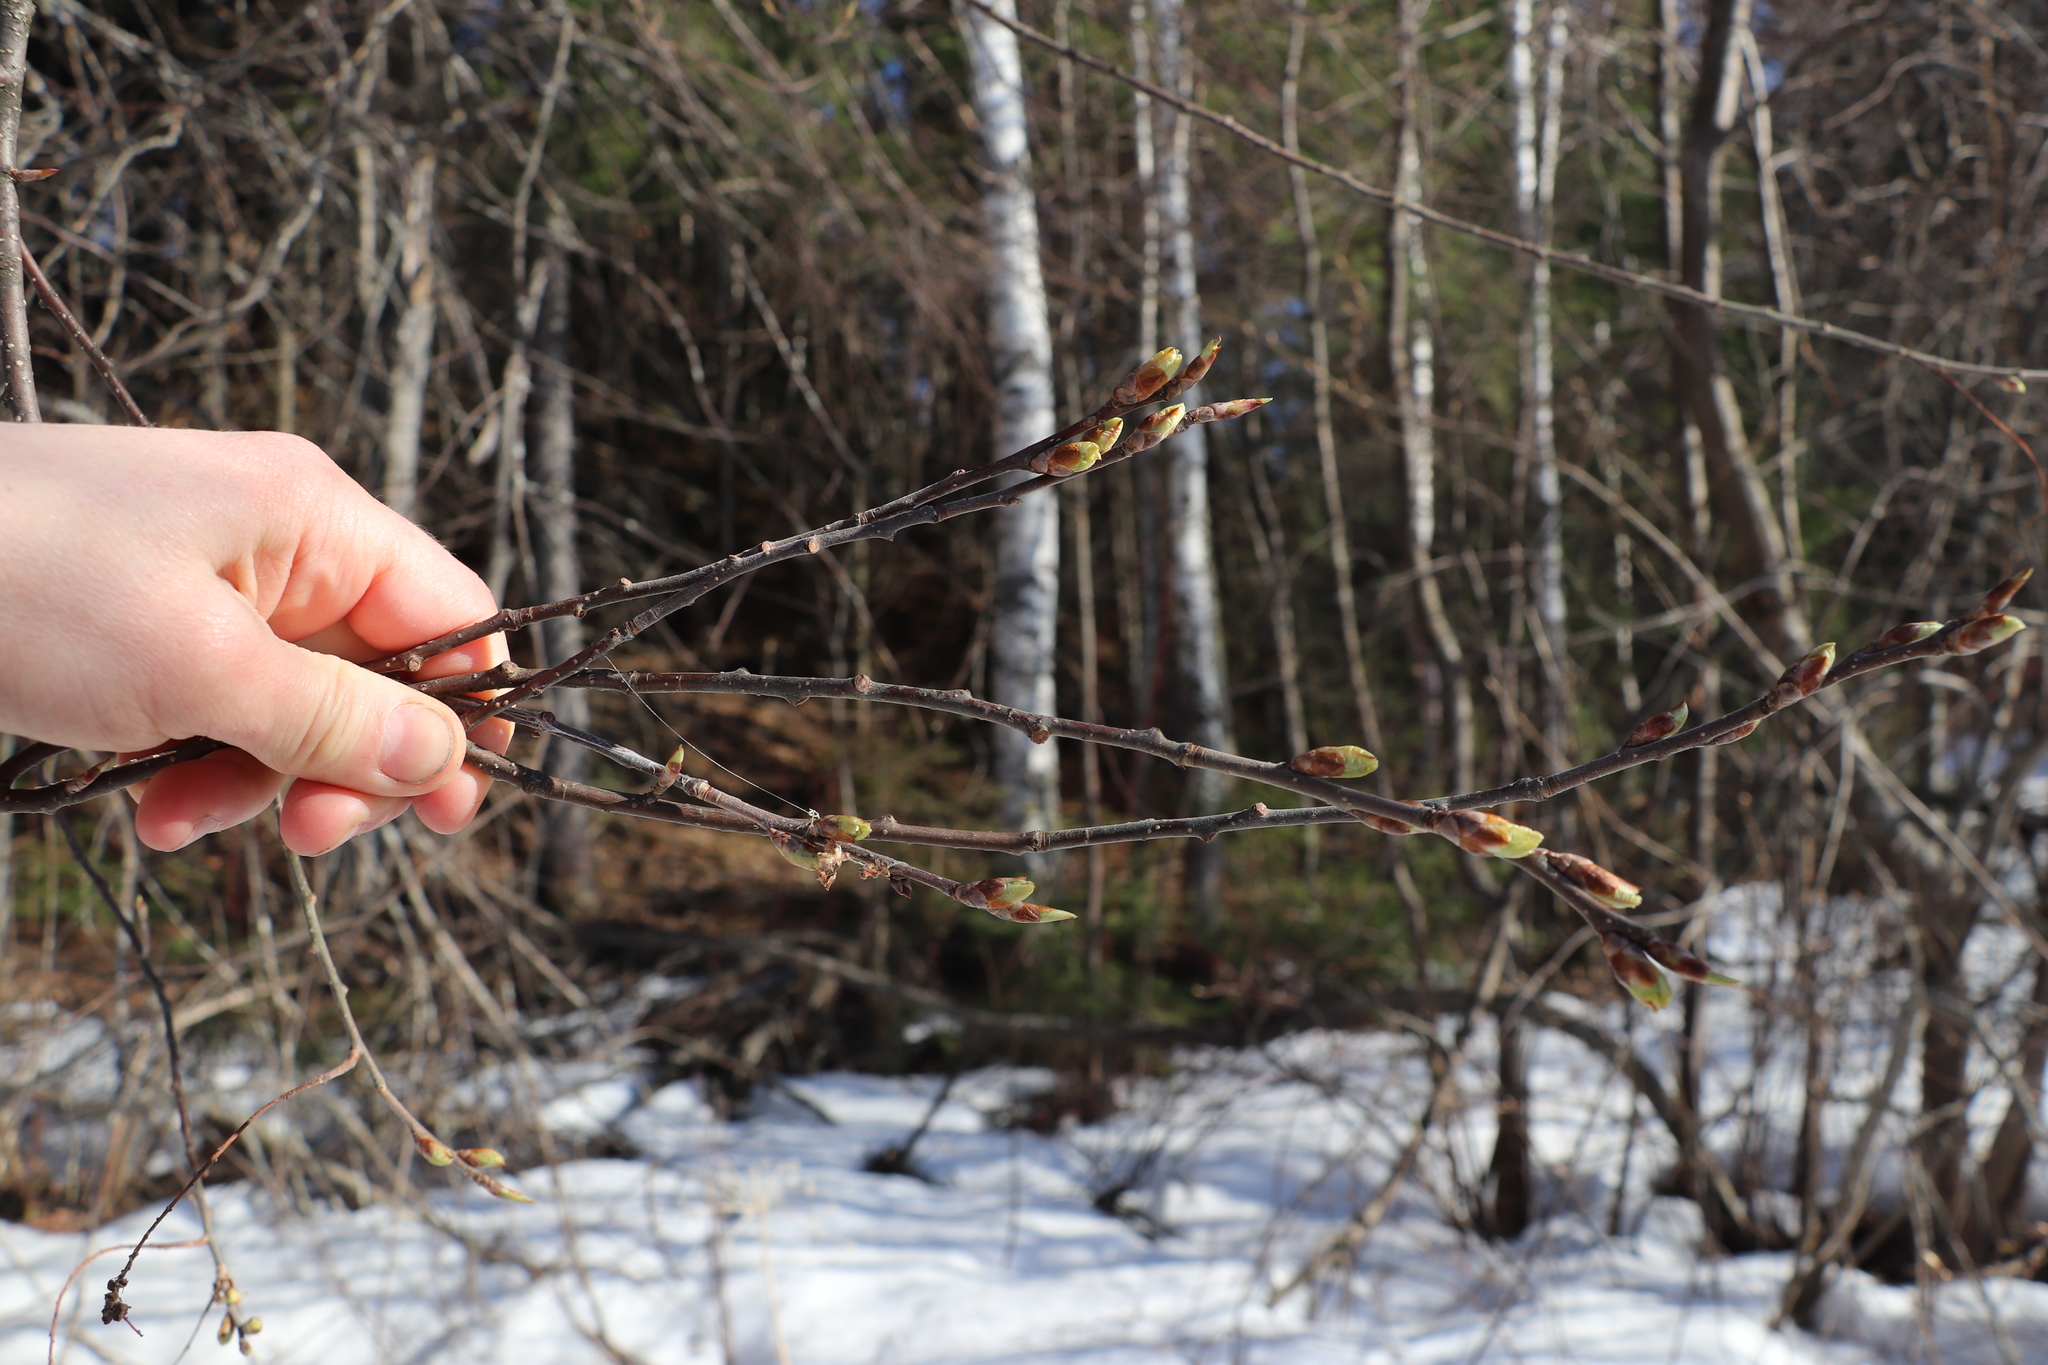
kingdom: Plantae
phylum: Tracheophyta
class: Magnoliopsida
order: Rosales
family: Rosaceae
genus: Prunus
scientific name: Prunus padus
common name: Bird cherry
